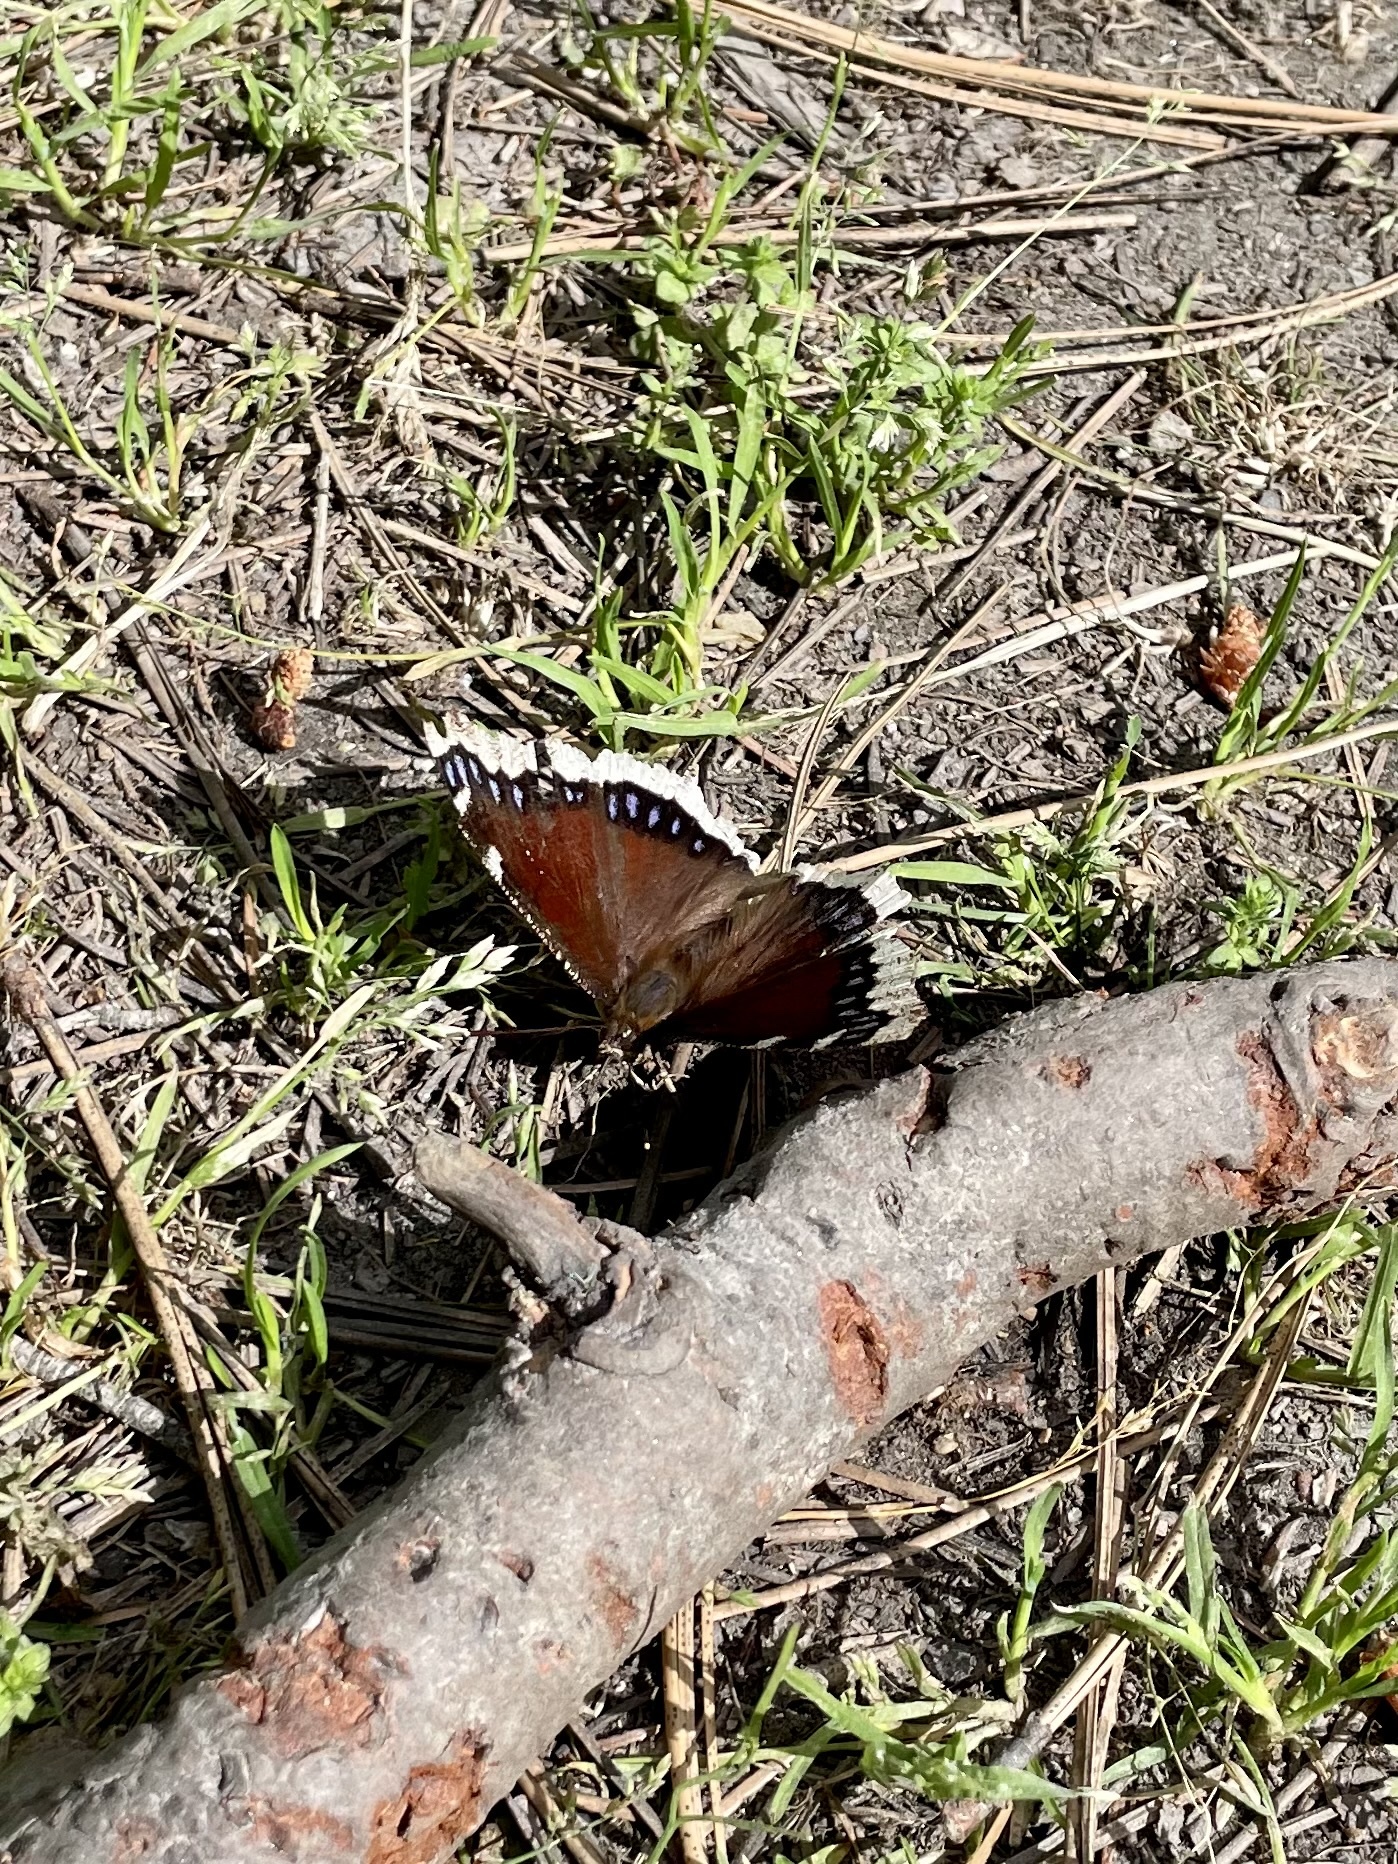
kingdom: Animalia
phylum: Arthropoda
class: Insecta
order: Lepidoptera
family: Nymphalidae
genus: Nymphalis
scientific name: Nymphalis antiopa
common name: Camberwell beauty
